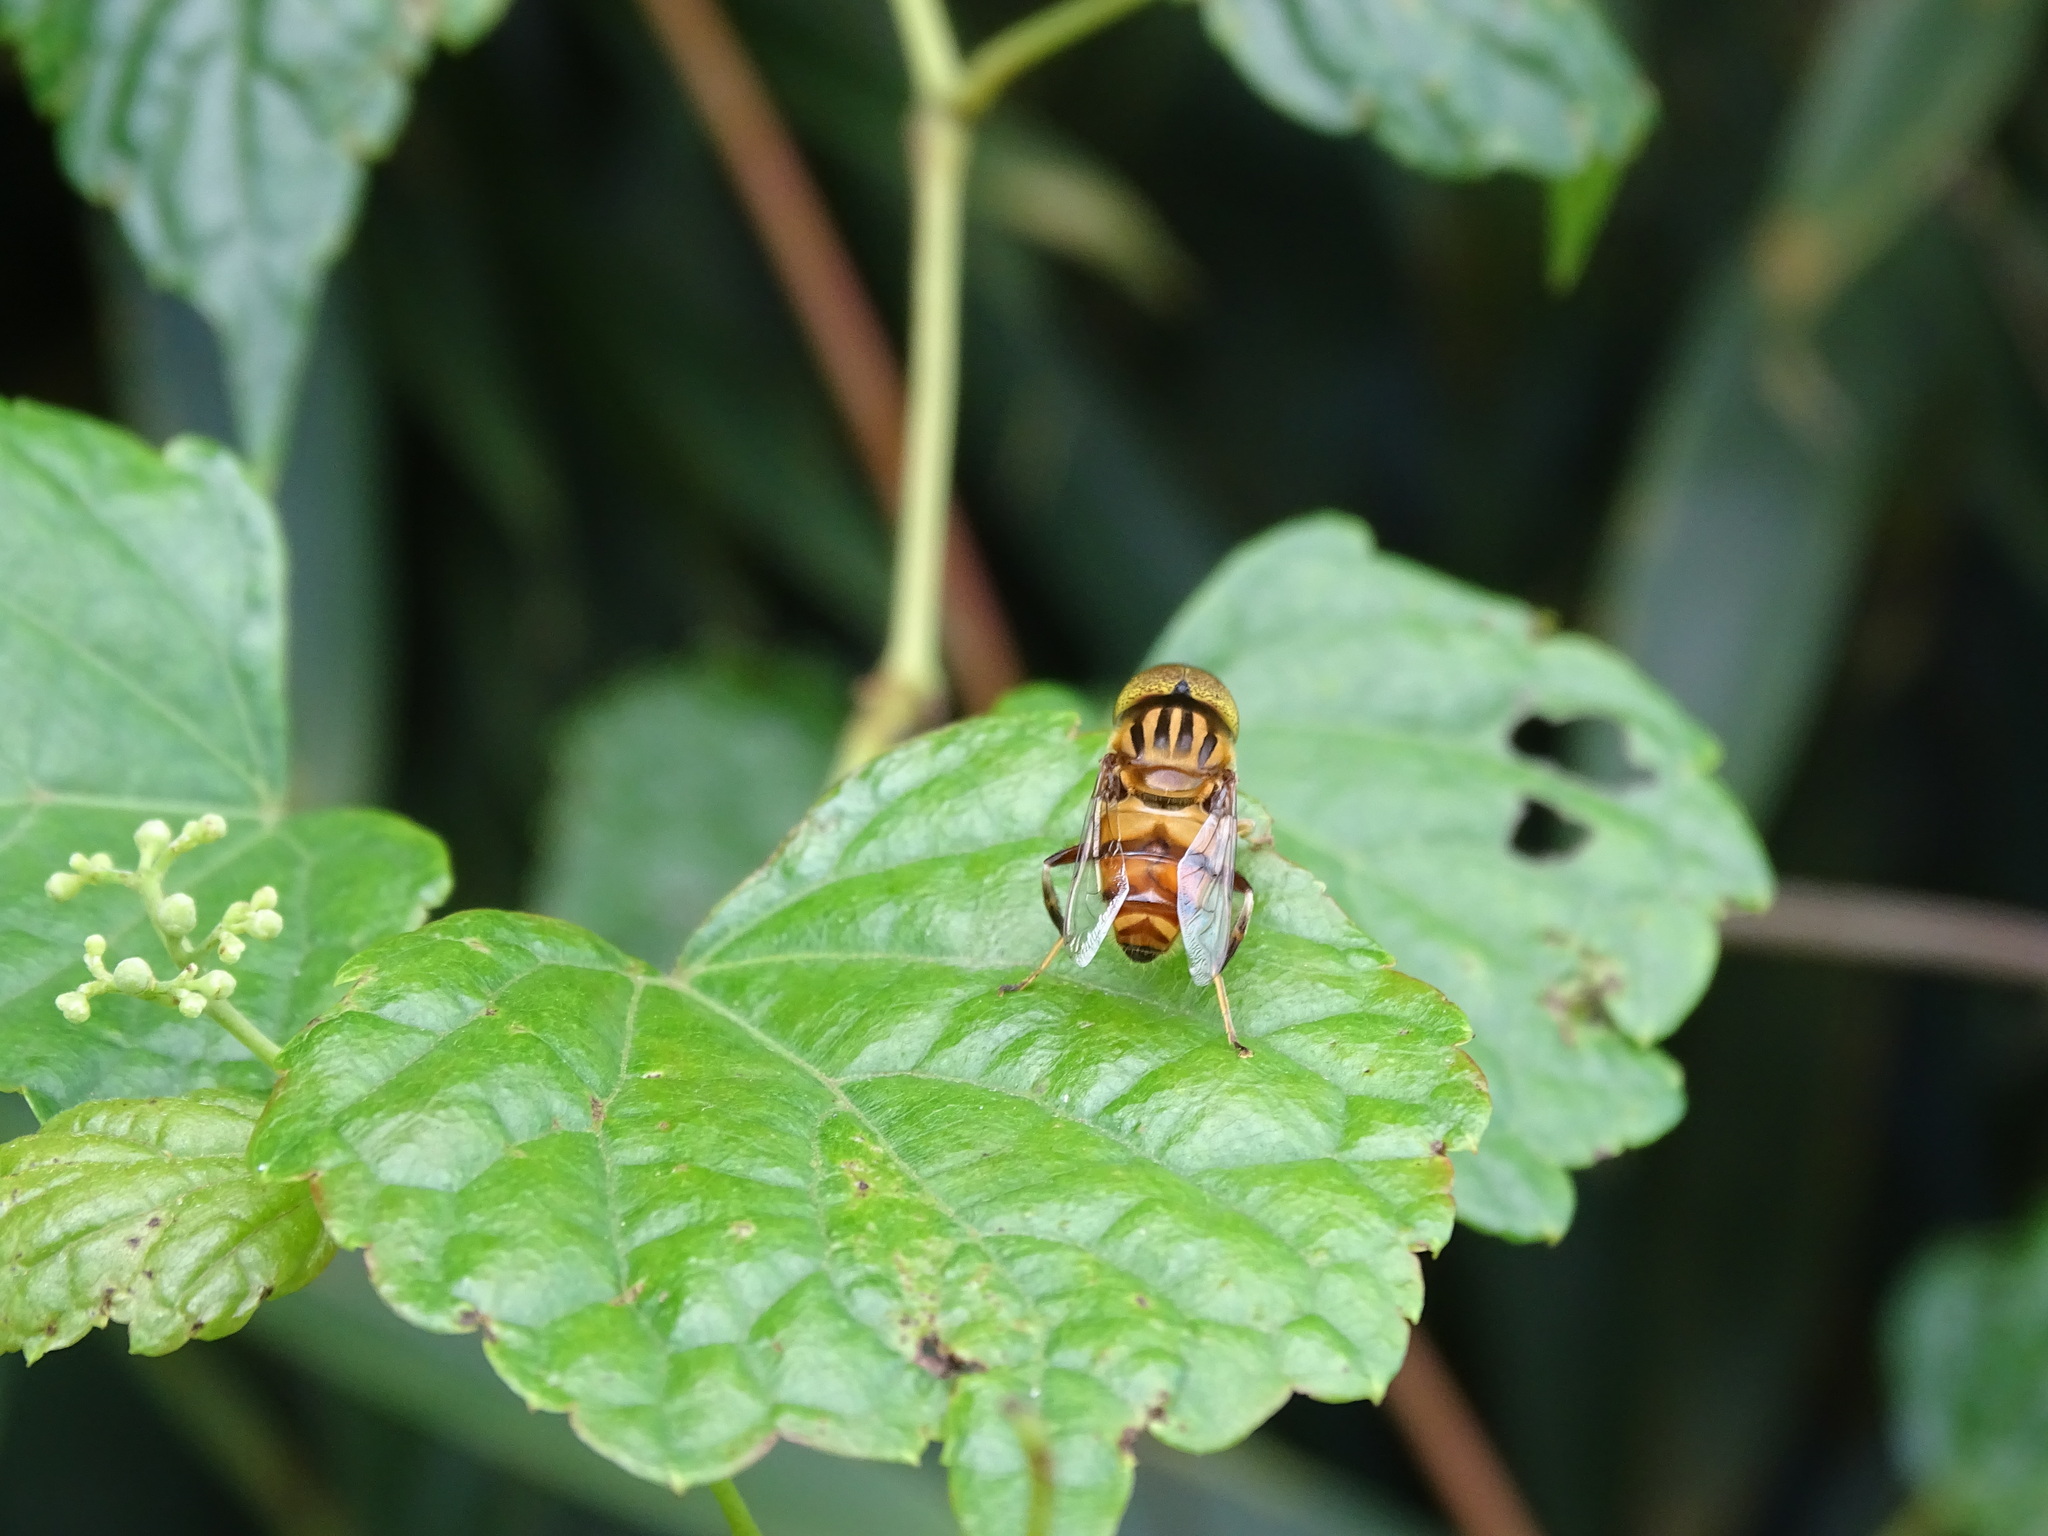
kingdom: Animalia
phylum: Arthropoda
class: Insecta
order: Diptera
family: Syrphidae
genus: Eristalinus
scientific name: Eristalinus arvorum
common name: Syrphid fly
